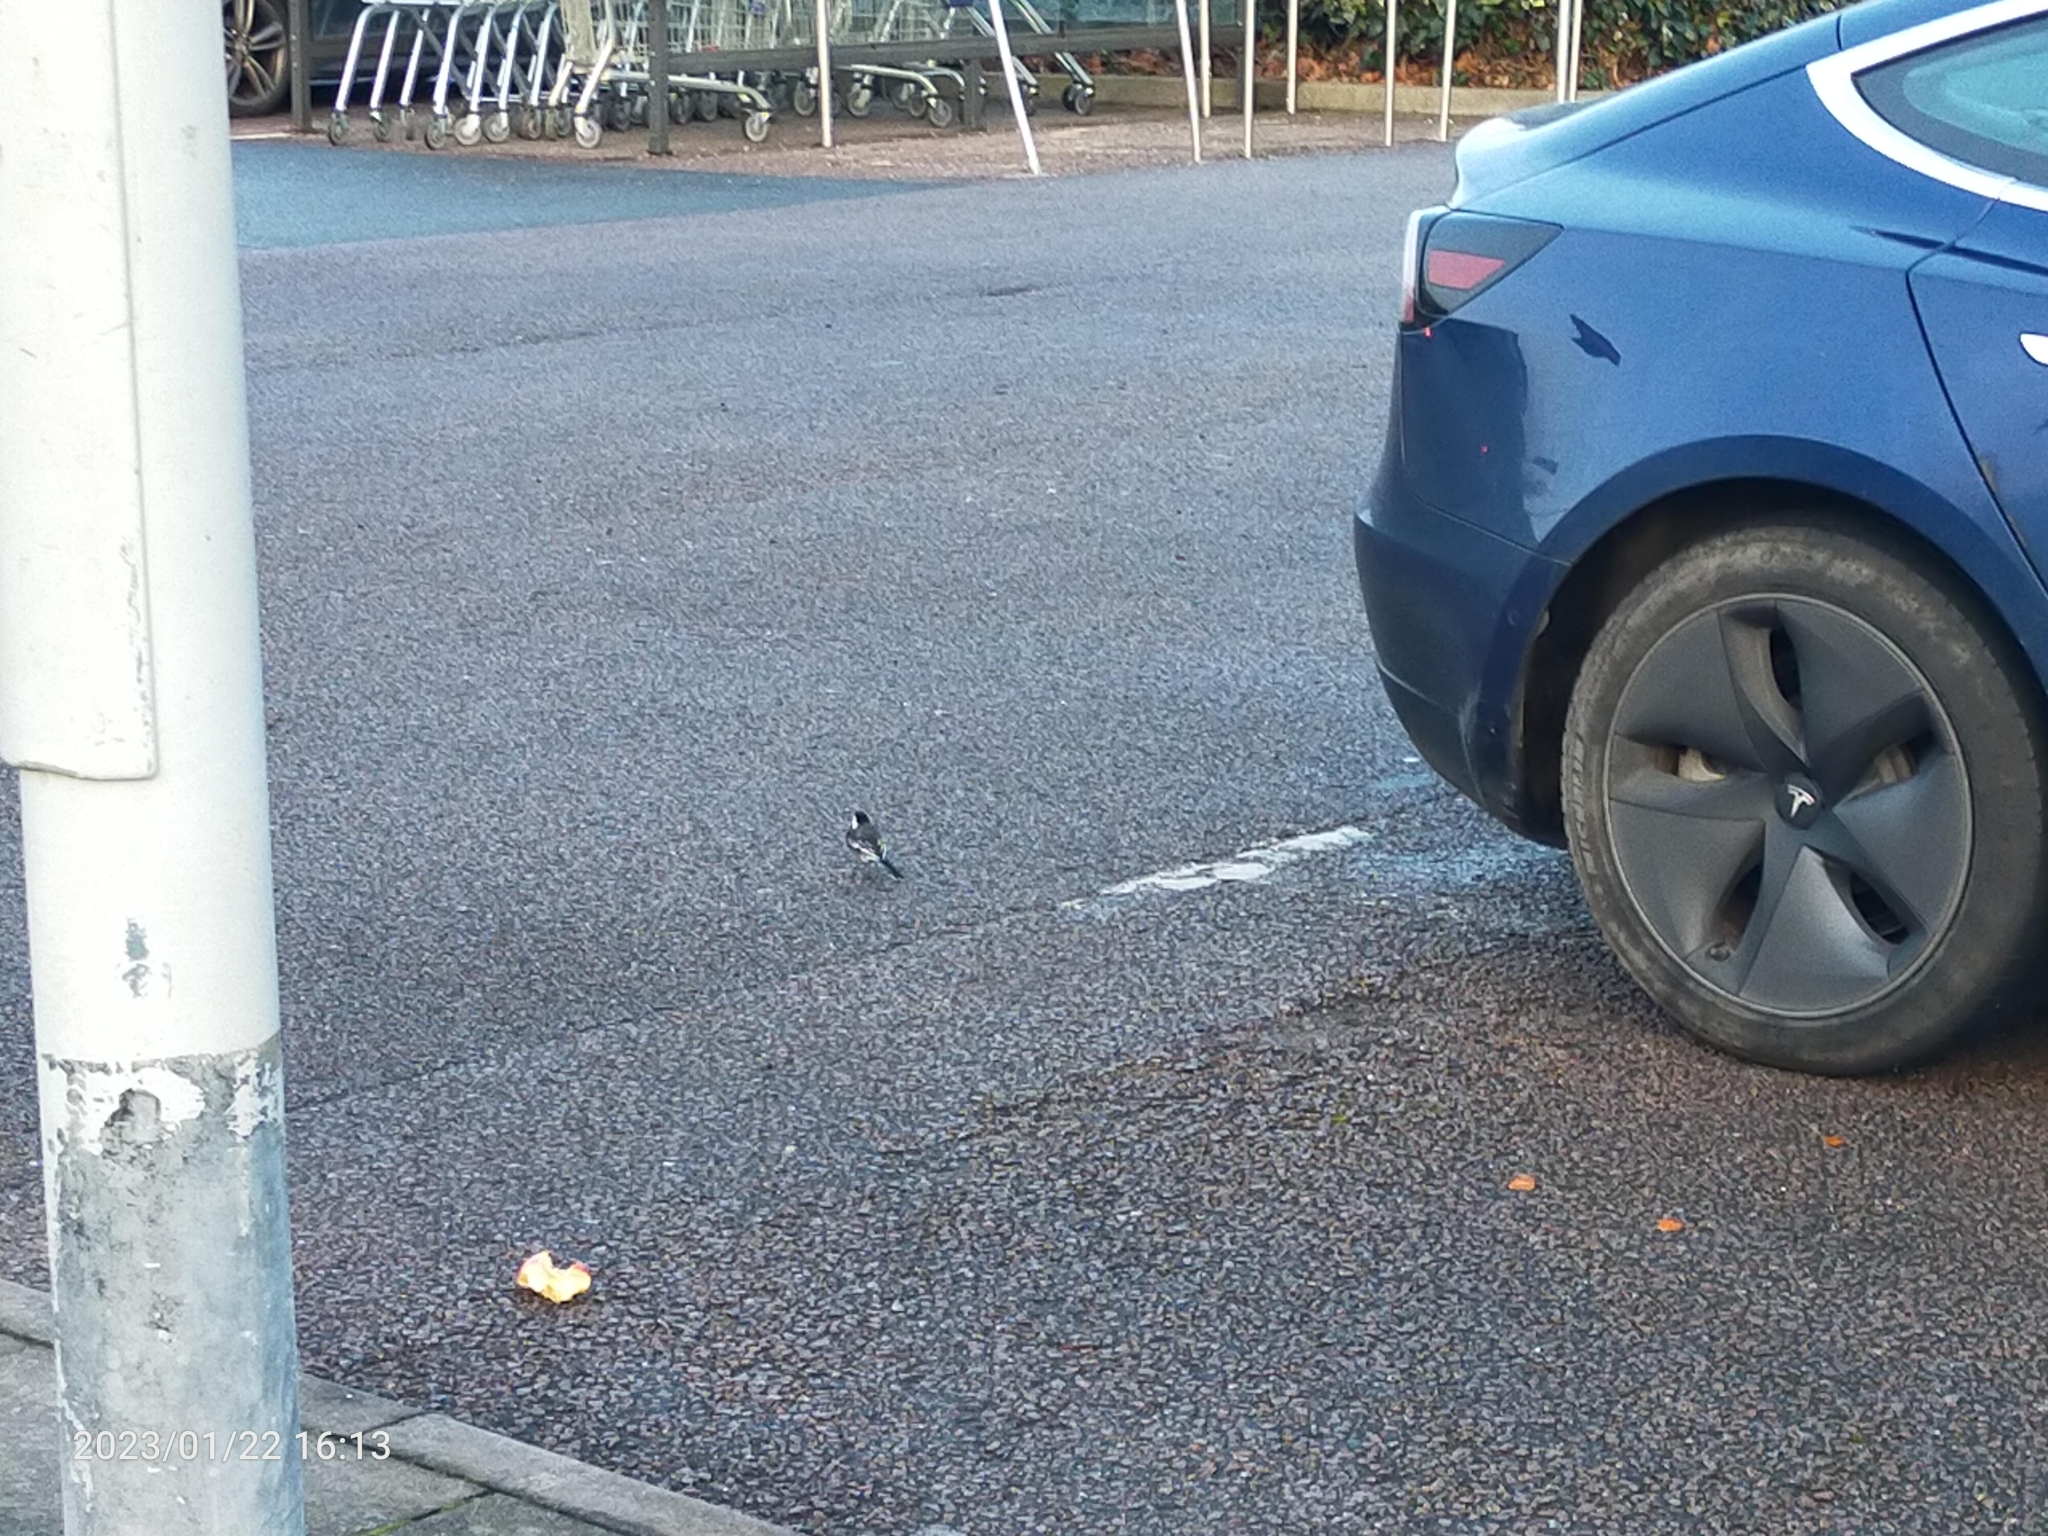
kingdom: Animalia
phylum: Chordata
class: Aves
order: Passeriformes
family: Motacillidae
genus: Motacilla
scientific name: Motacilla alba
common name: White wagtail
